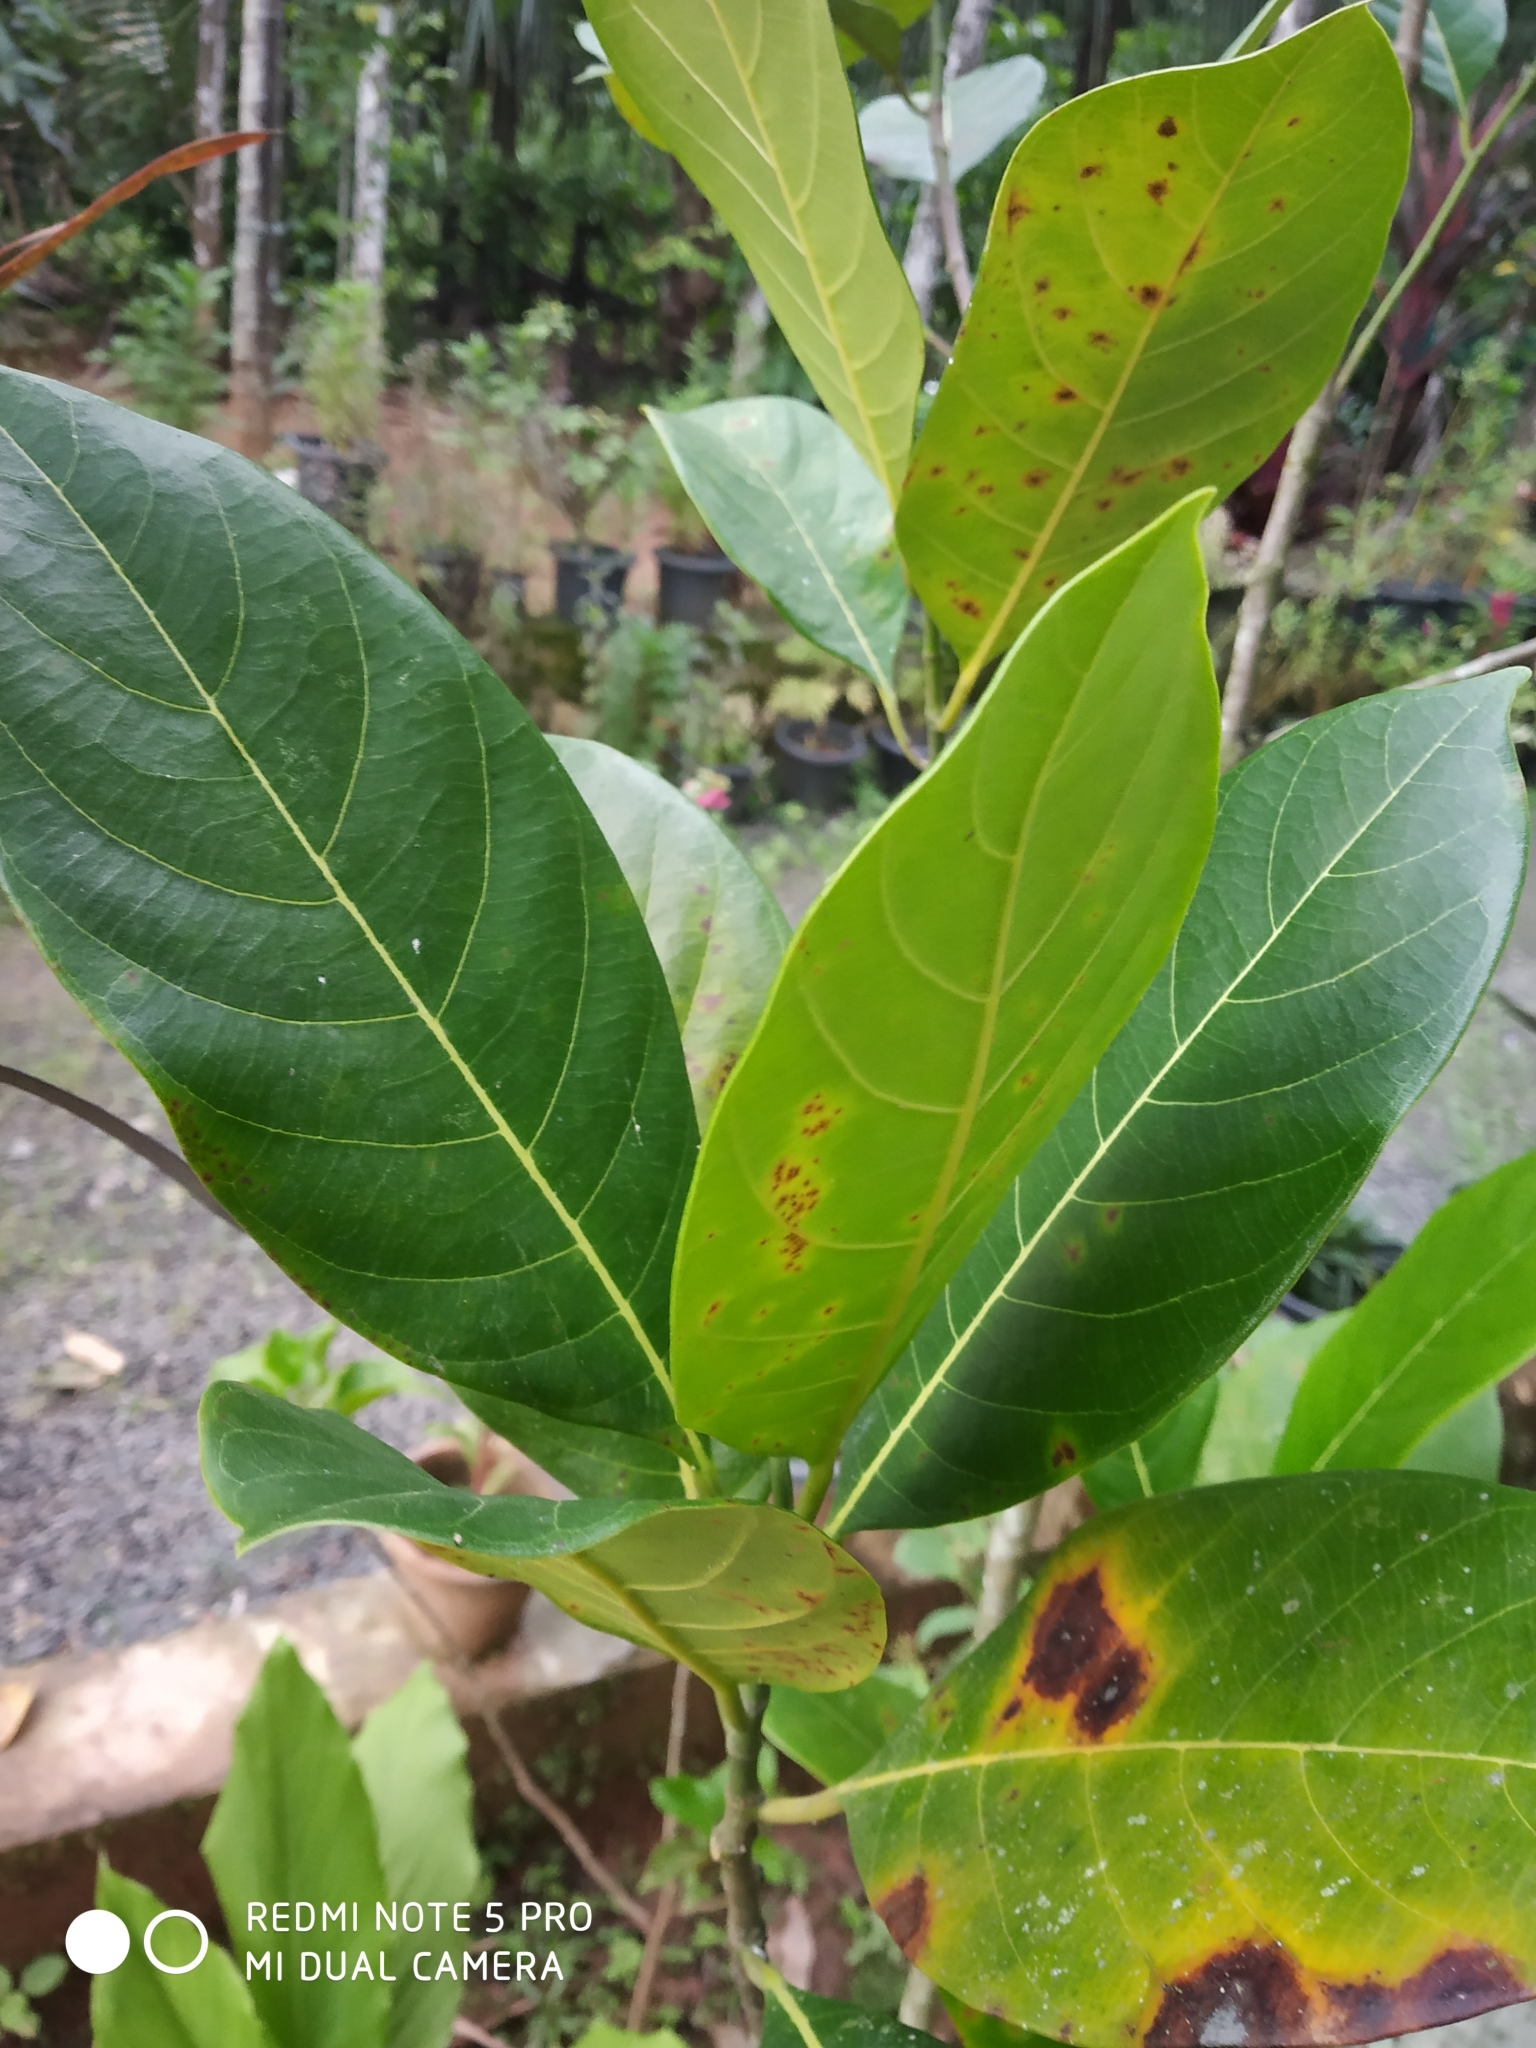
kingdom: Plantae
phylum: Tracheophyta
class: Magnoliopsida
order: Rosales
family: Moraceae
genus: Artocarpus
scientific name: Artocarpus heterophyllus
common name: Jackfruit
